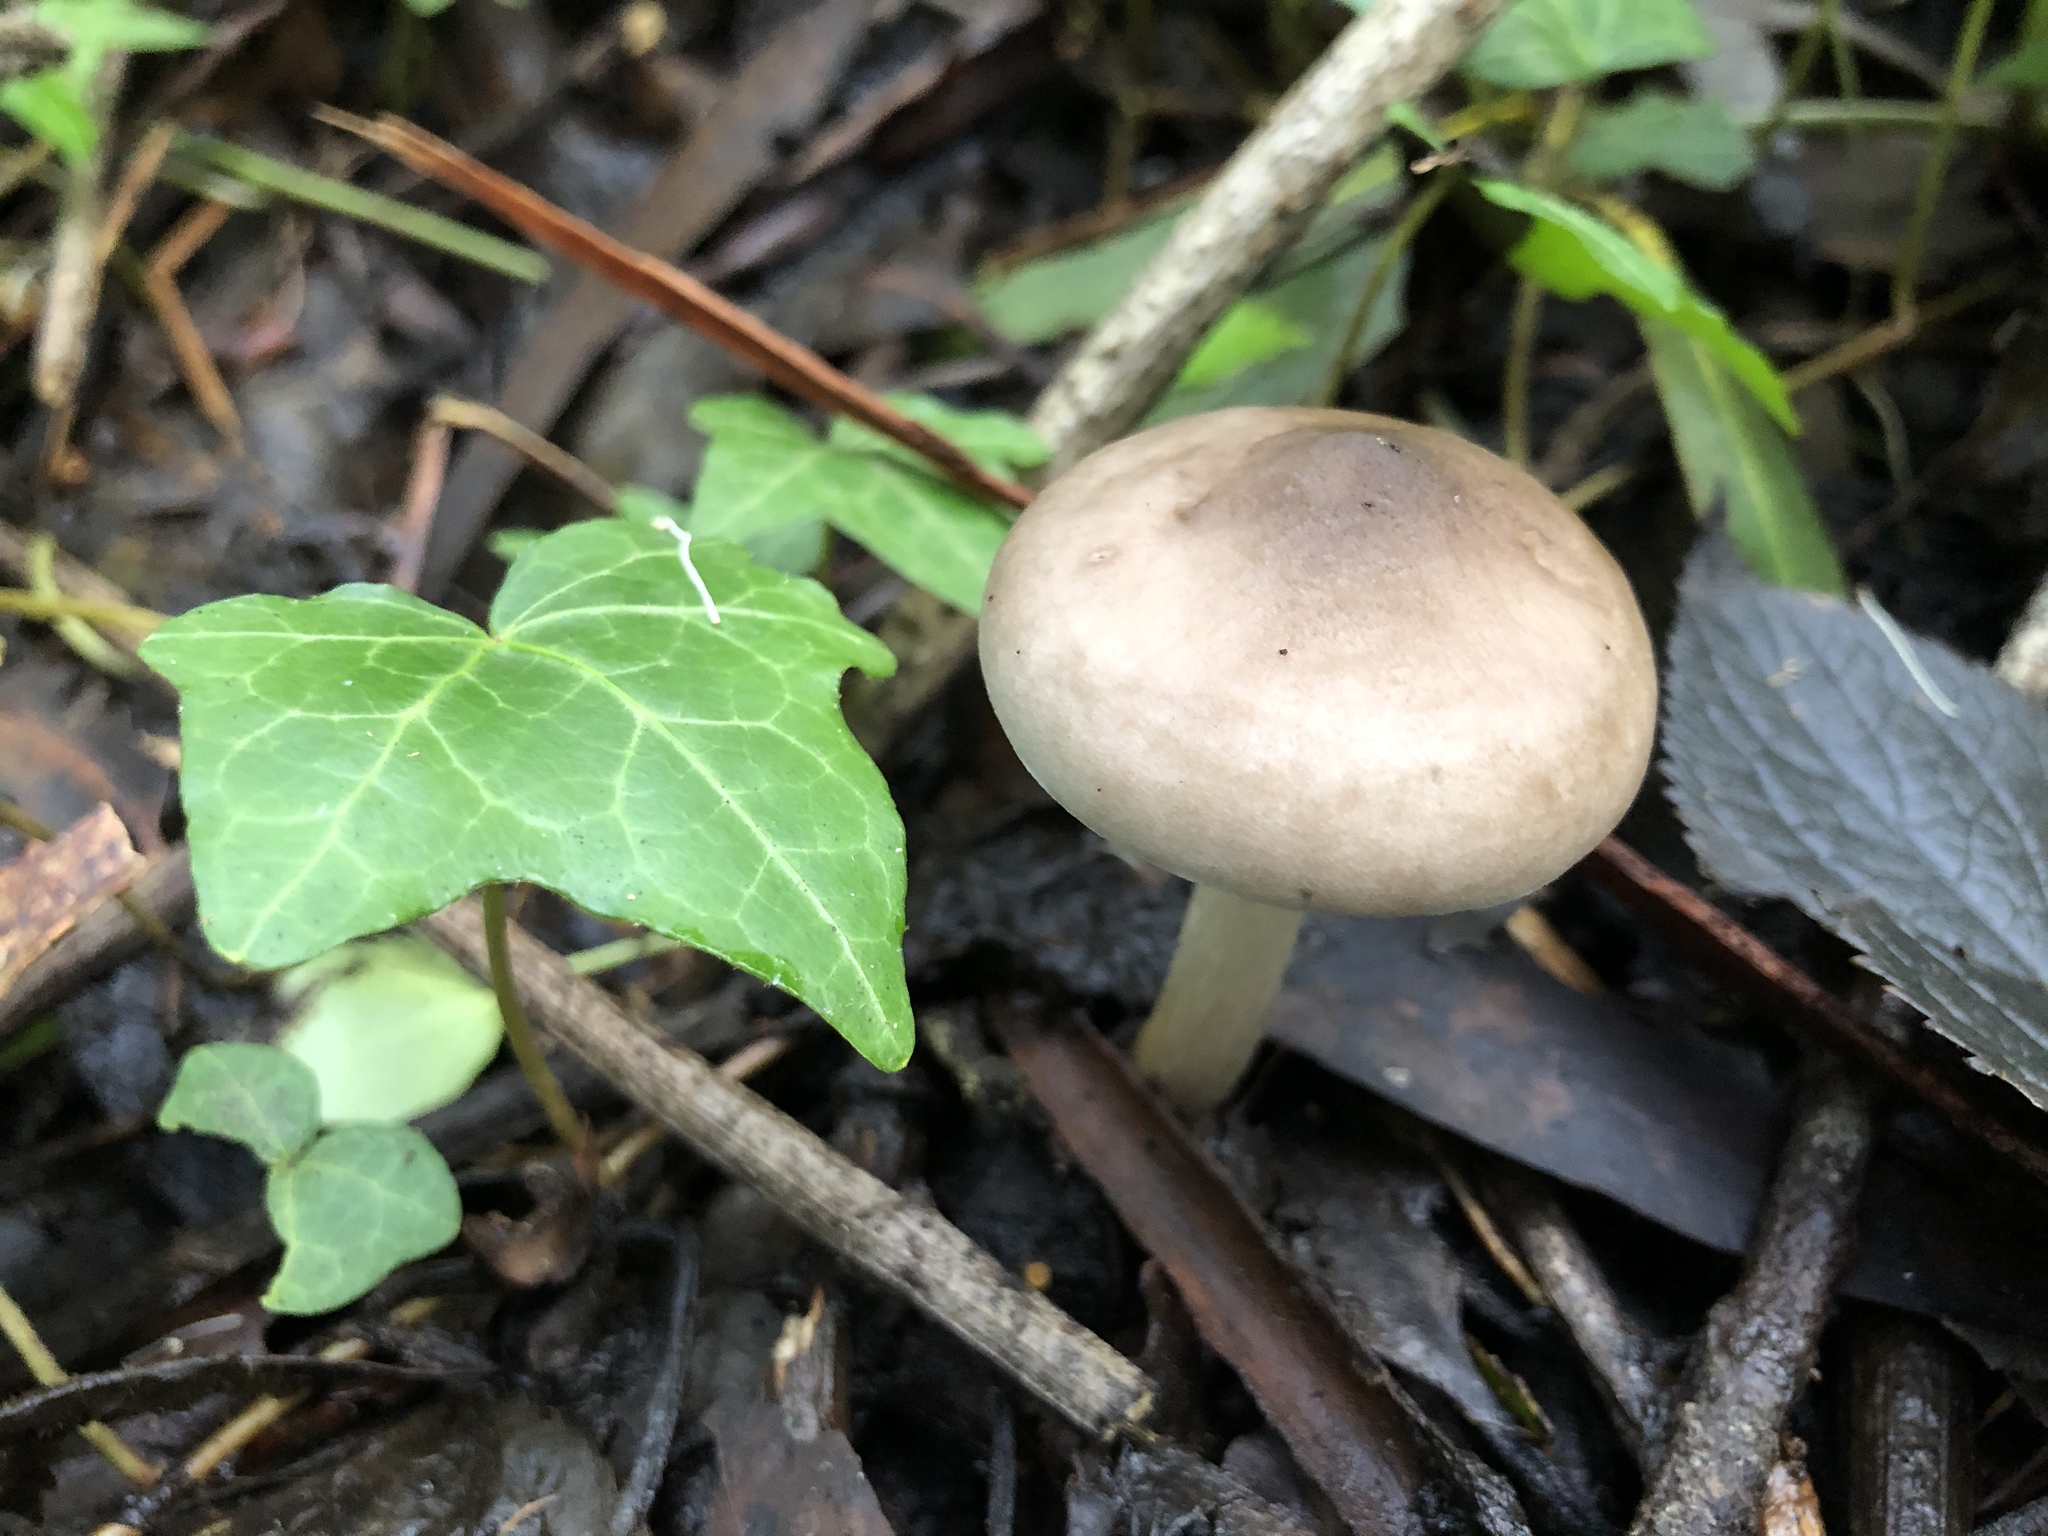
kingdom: Fungi
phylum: Basidiomycota
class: Agaricomycetes
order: Agaricales
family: Pluteaceae
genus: Pluteus
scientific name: Pluteus cervinus
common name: Deer shield
